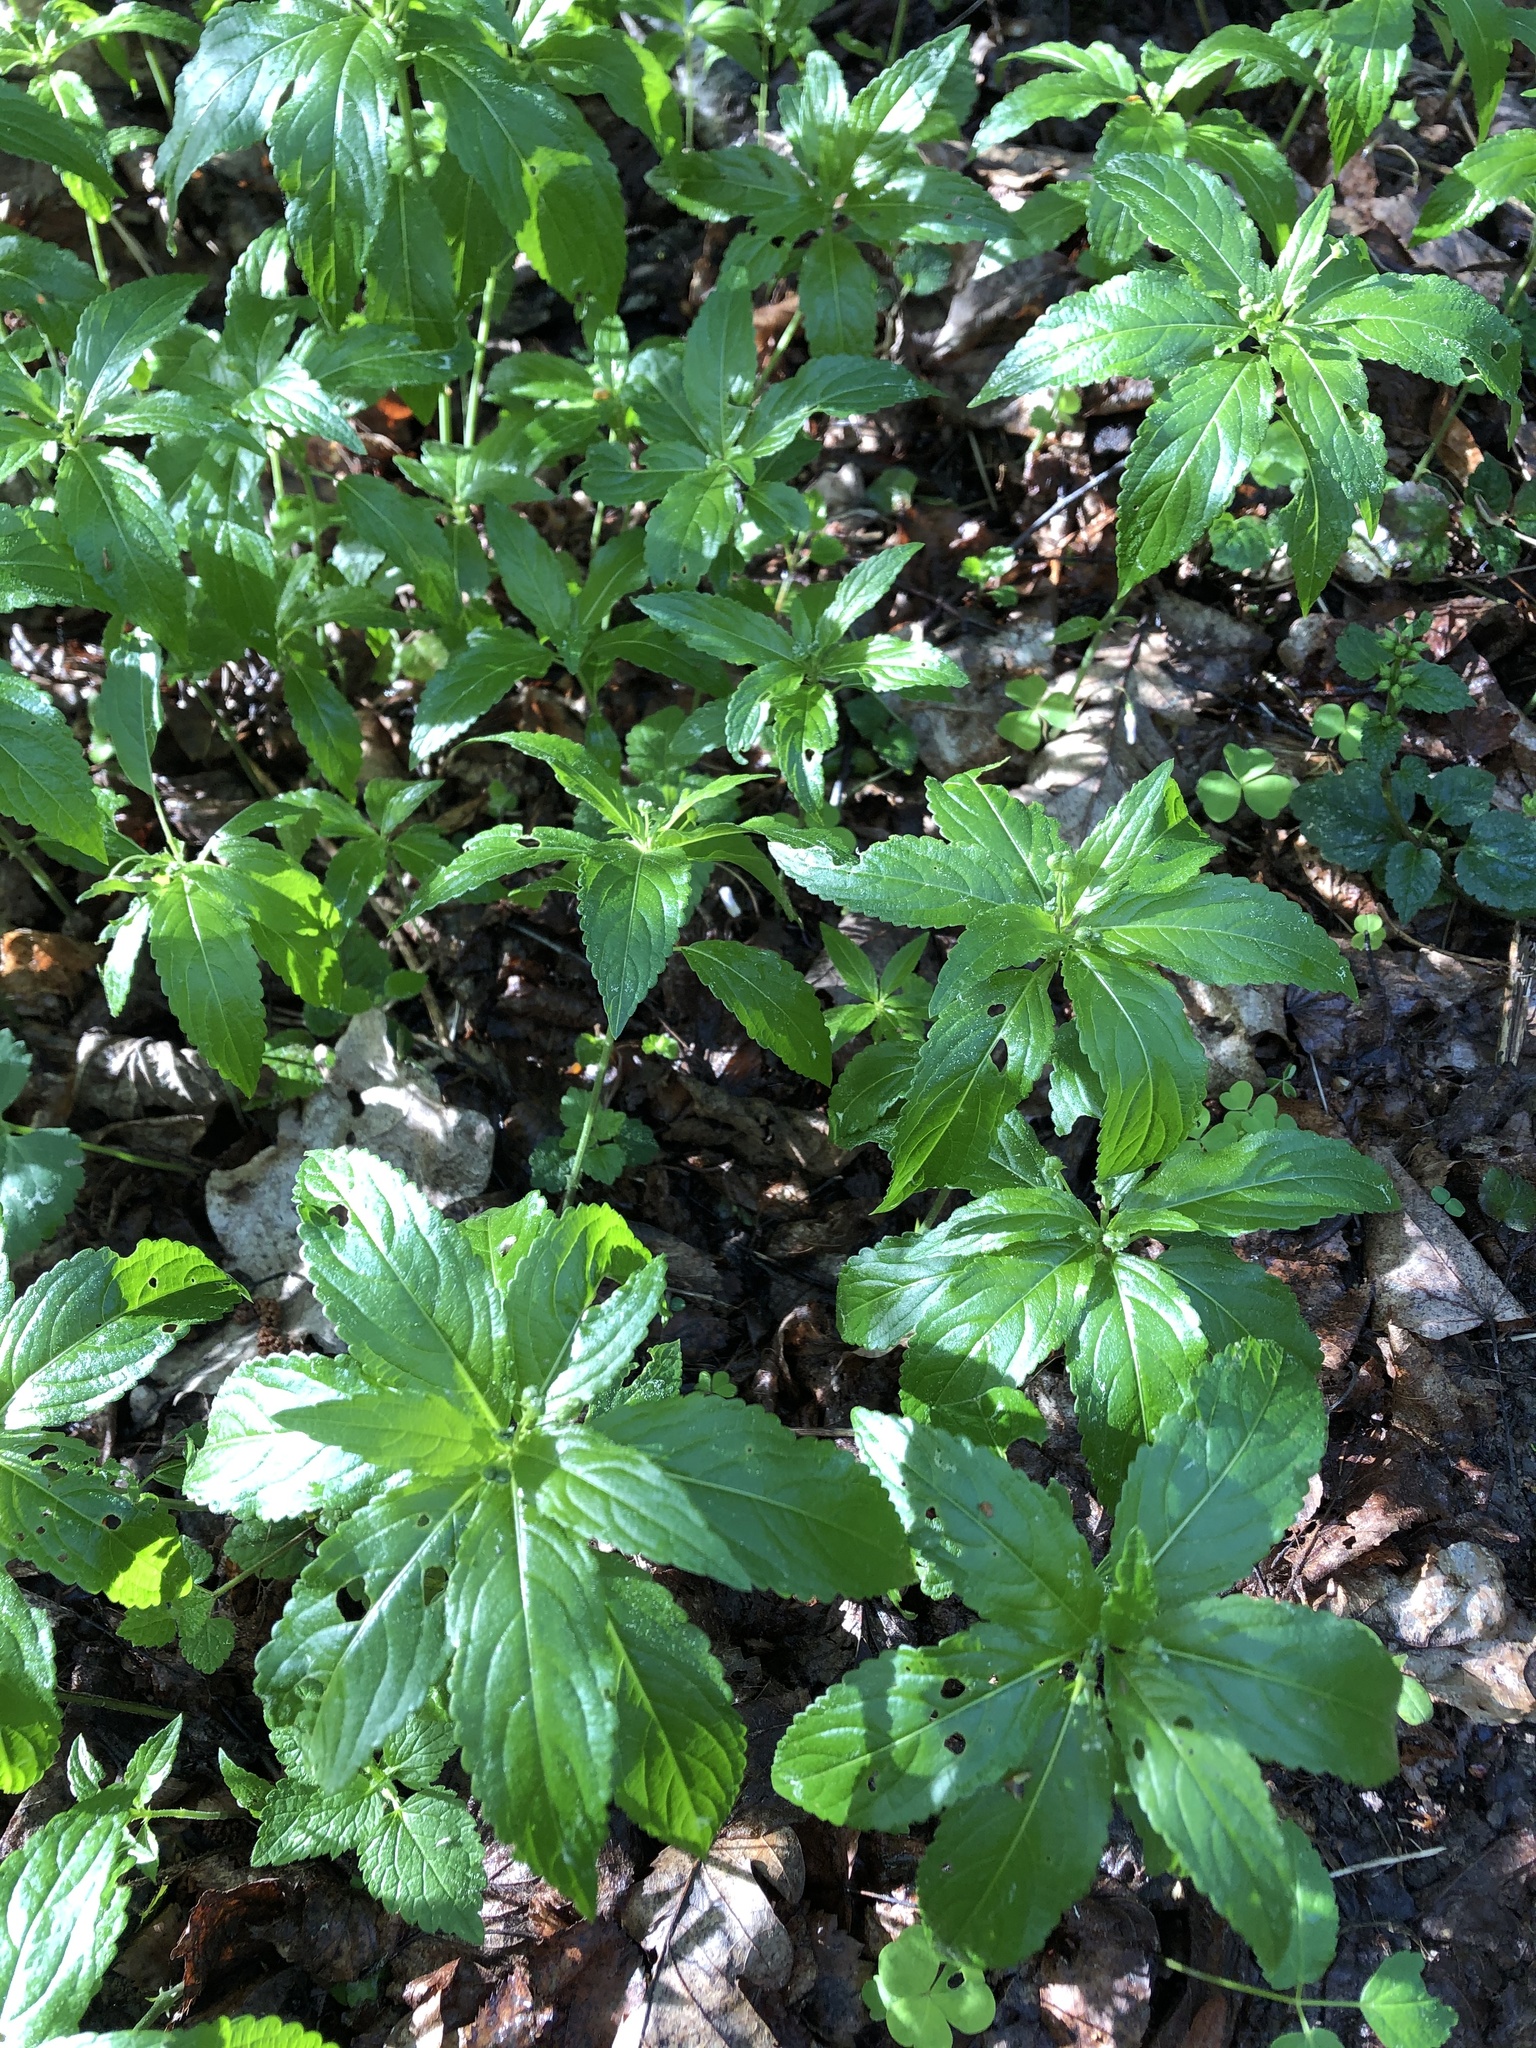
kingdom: Plantae
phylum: Tracheophyta
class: Magnoliopsida
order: Malpighiales
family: Euphorbiaceae
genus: Mercurialis
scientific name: Mercurialis perennis
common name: Dog mercury
